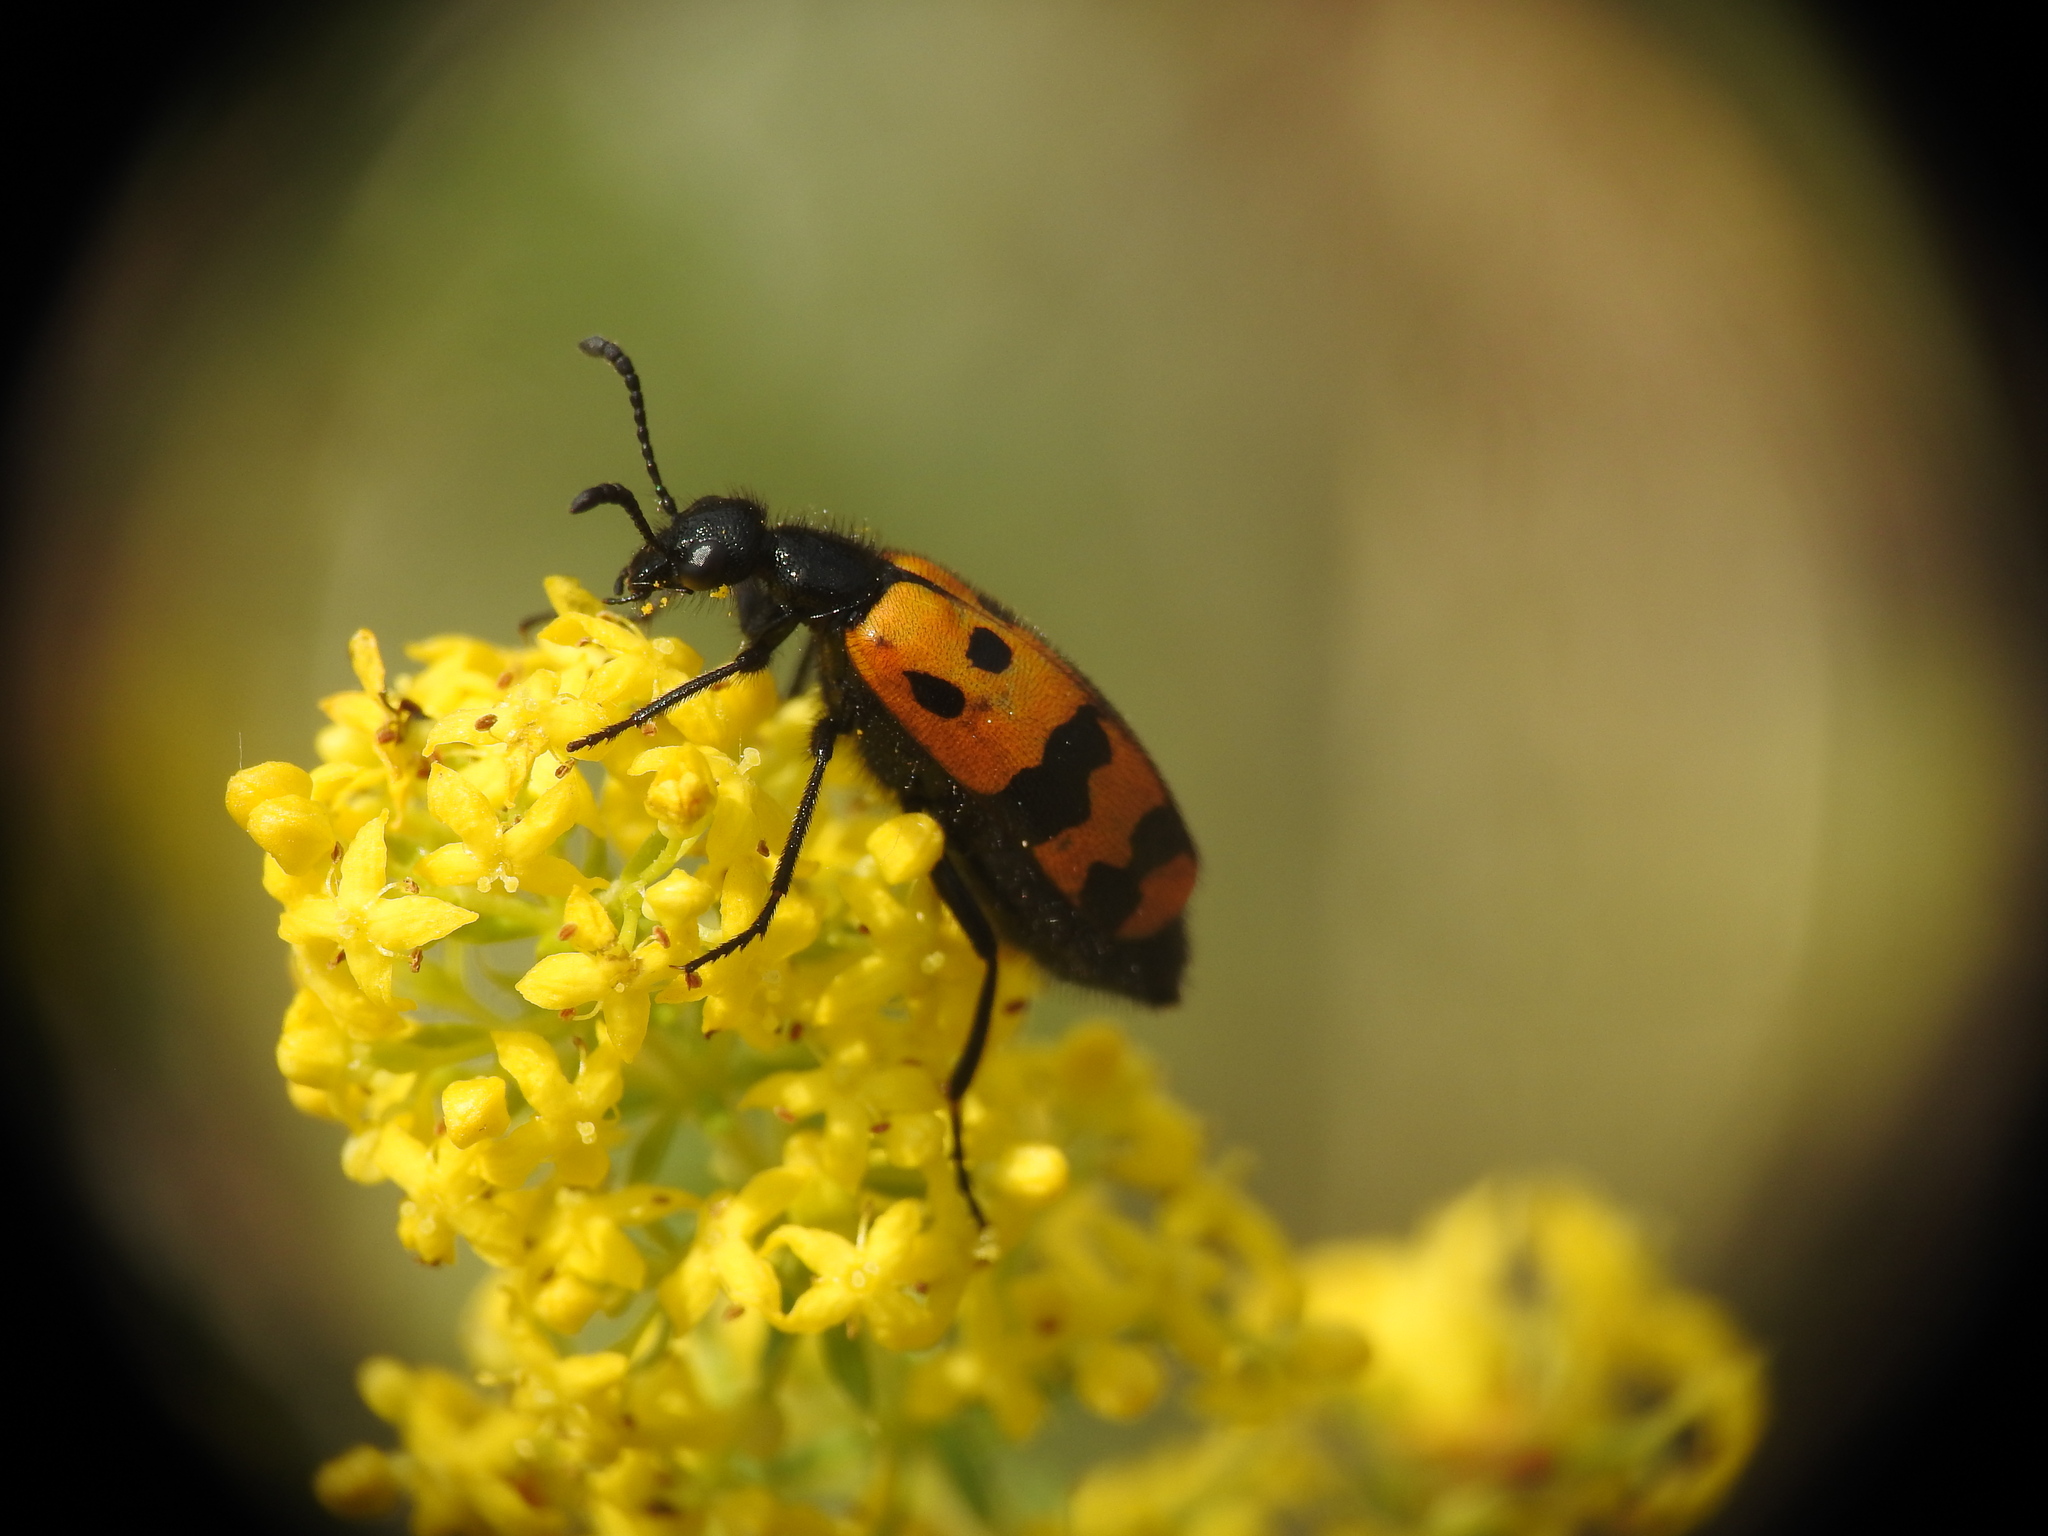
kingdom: Animalia
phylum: Arthropoda
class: Insecta
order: Coleoptera
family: Meloidae
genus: Mylabris
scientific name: Mylabris connata
